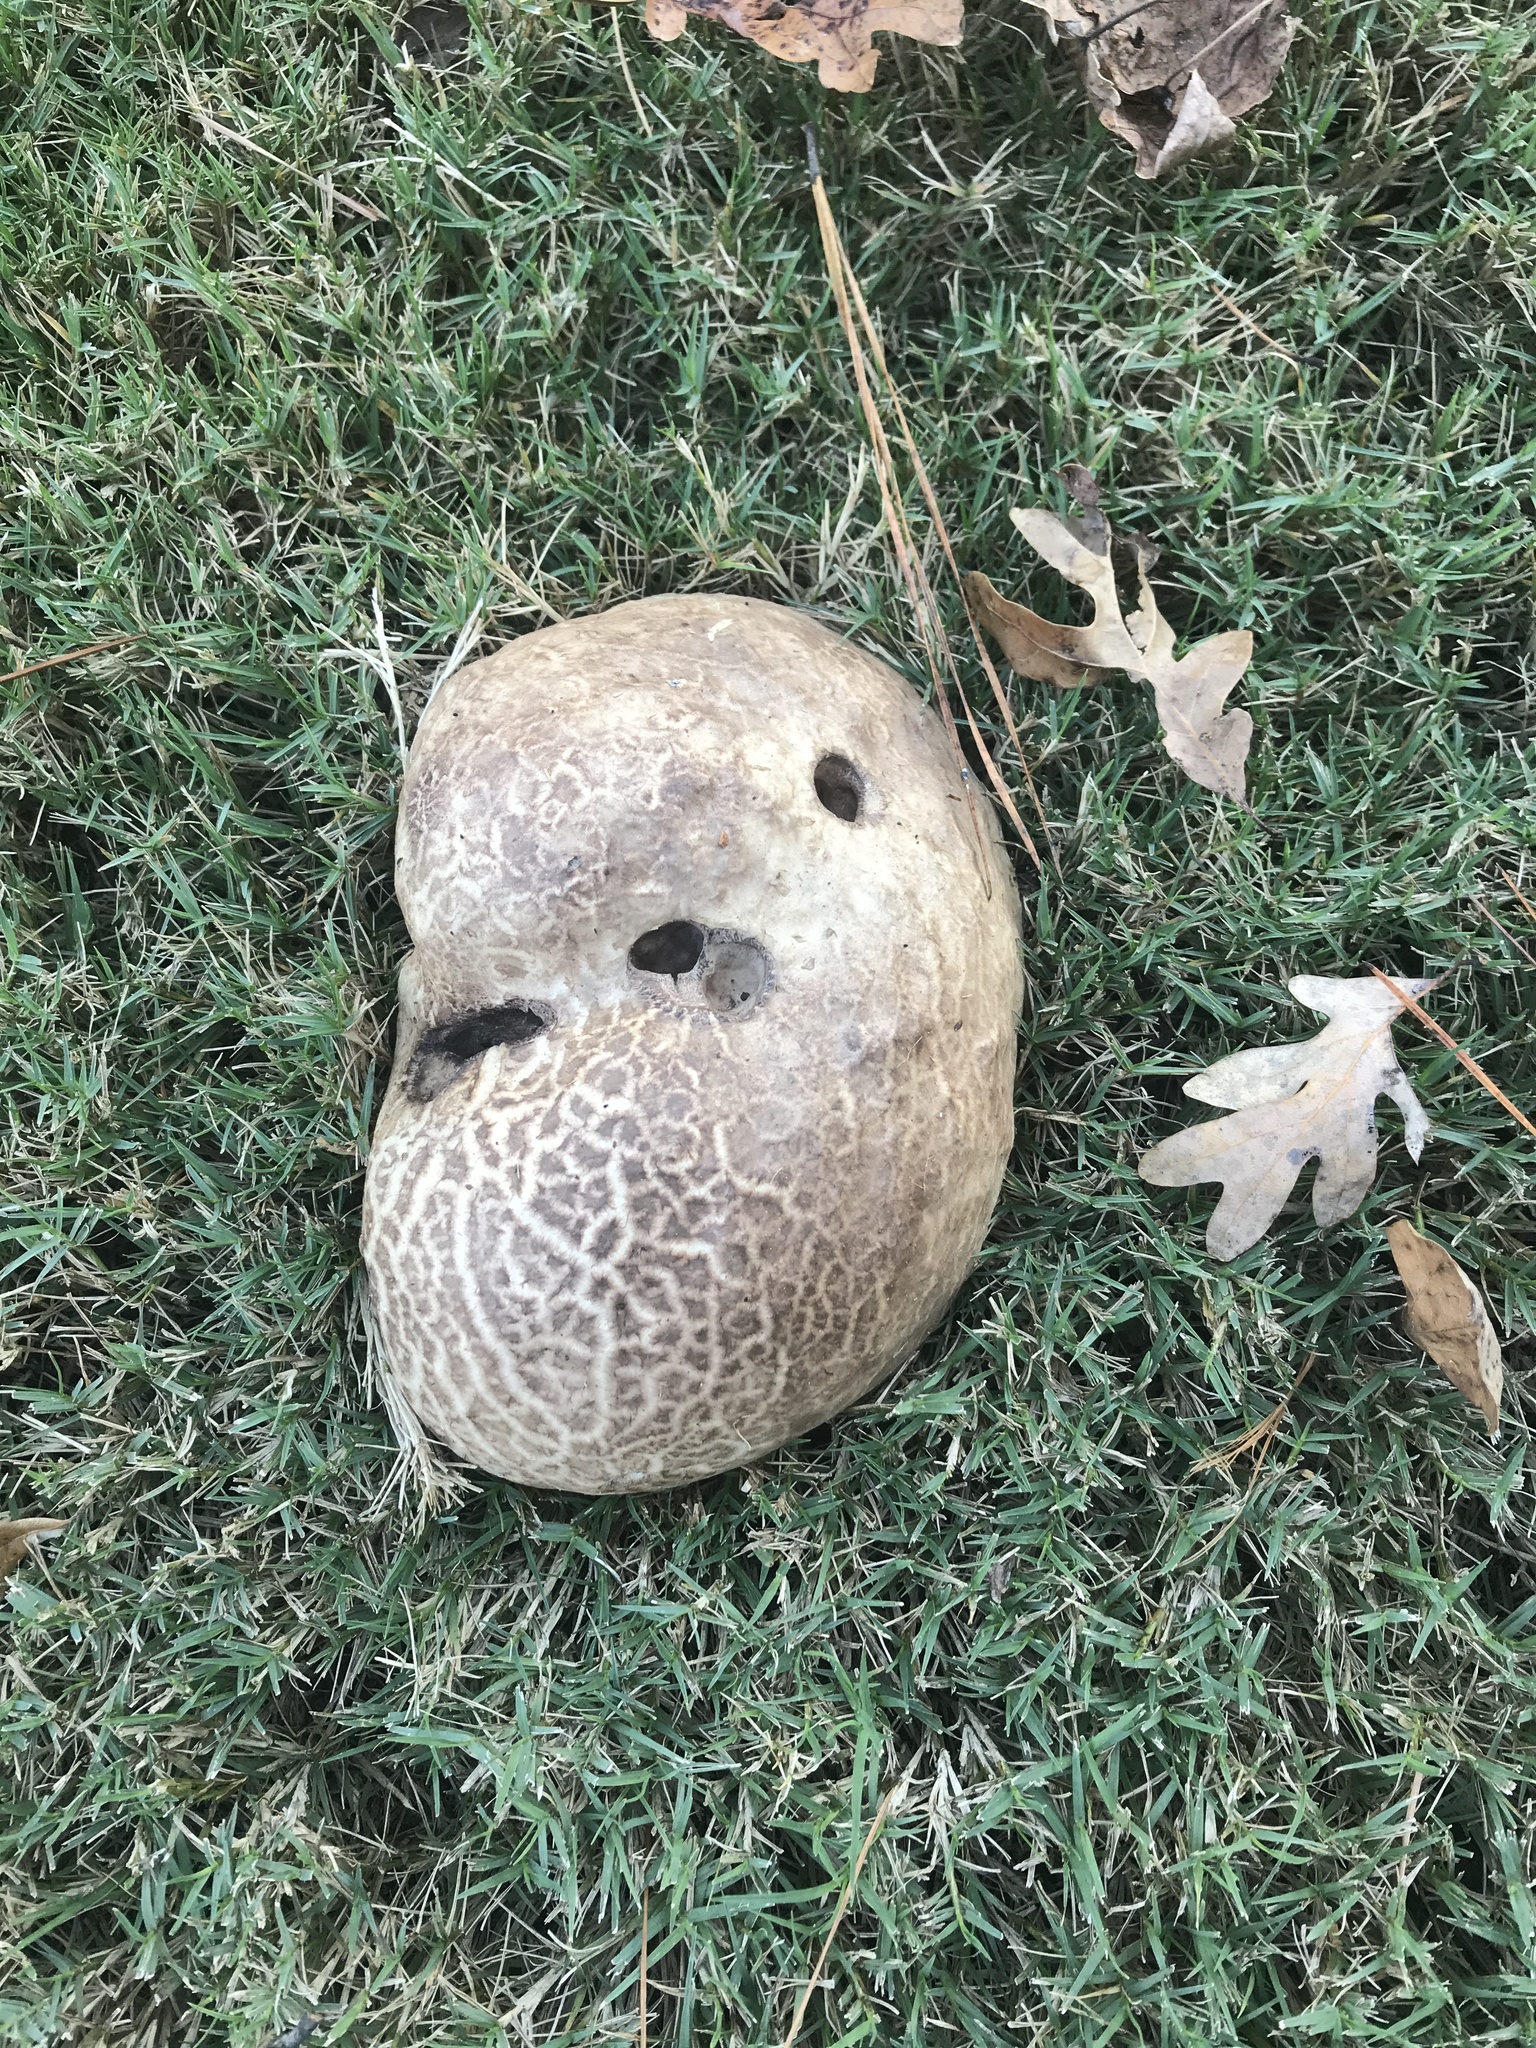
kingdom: Fungi
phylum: Basidiomycota
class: Agaricomycetes
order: Agaricales
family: Lycoperdaceae
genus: Calvatia
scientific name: Calvatia cyathiformis
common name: Purple-spored puffball
